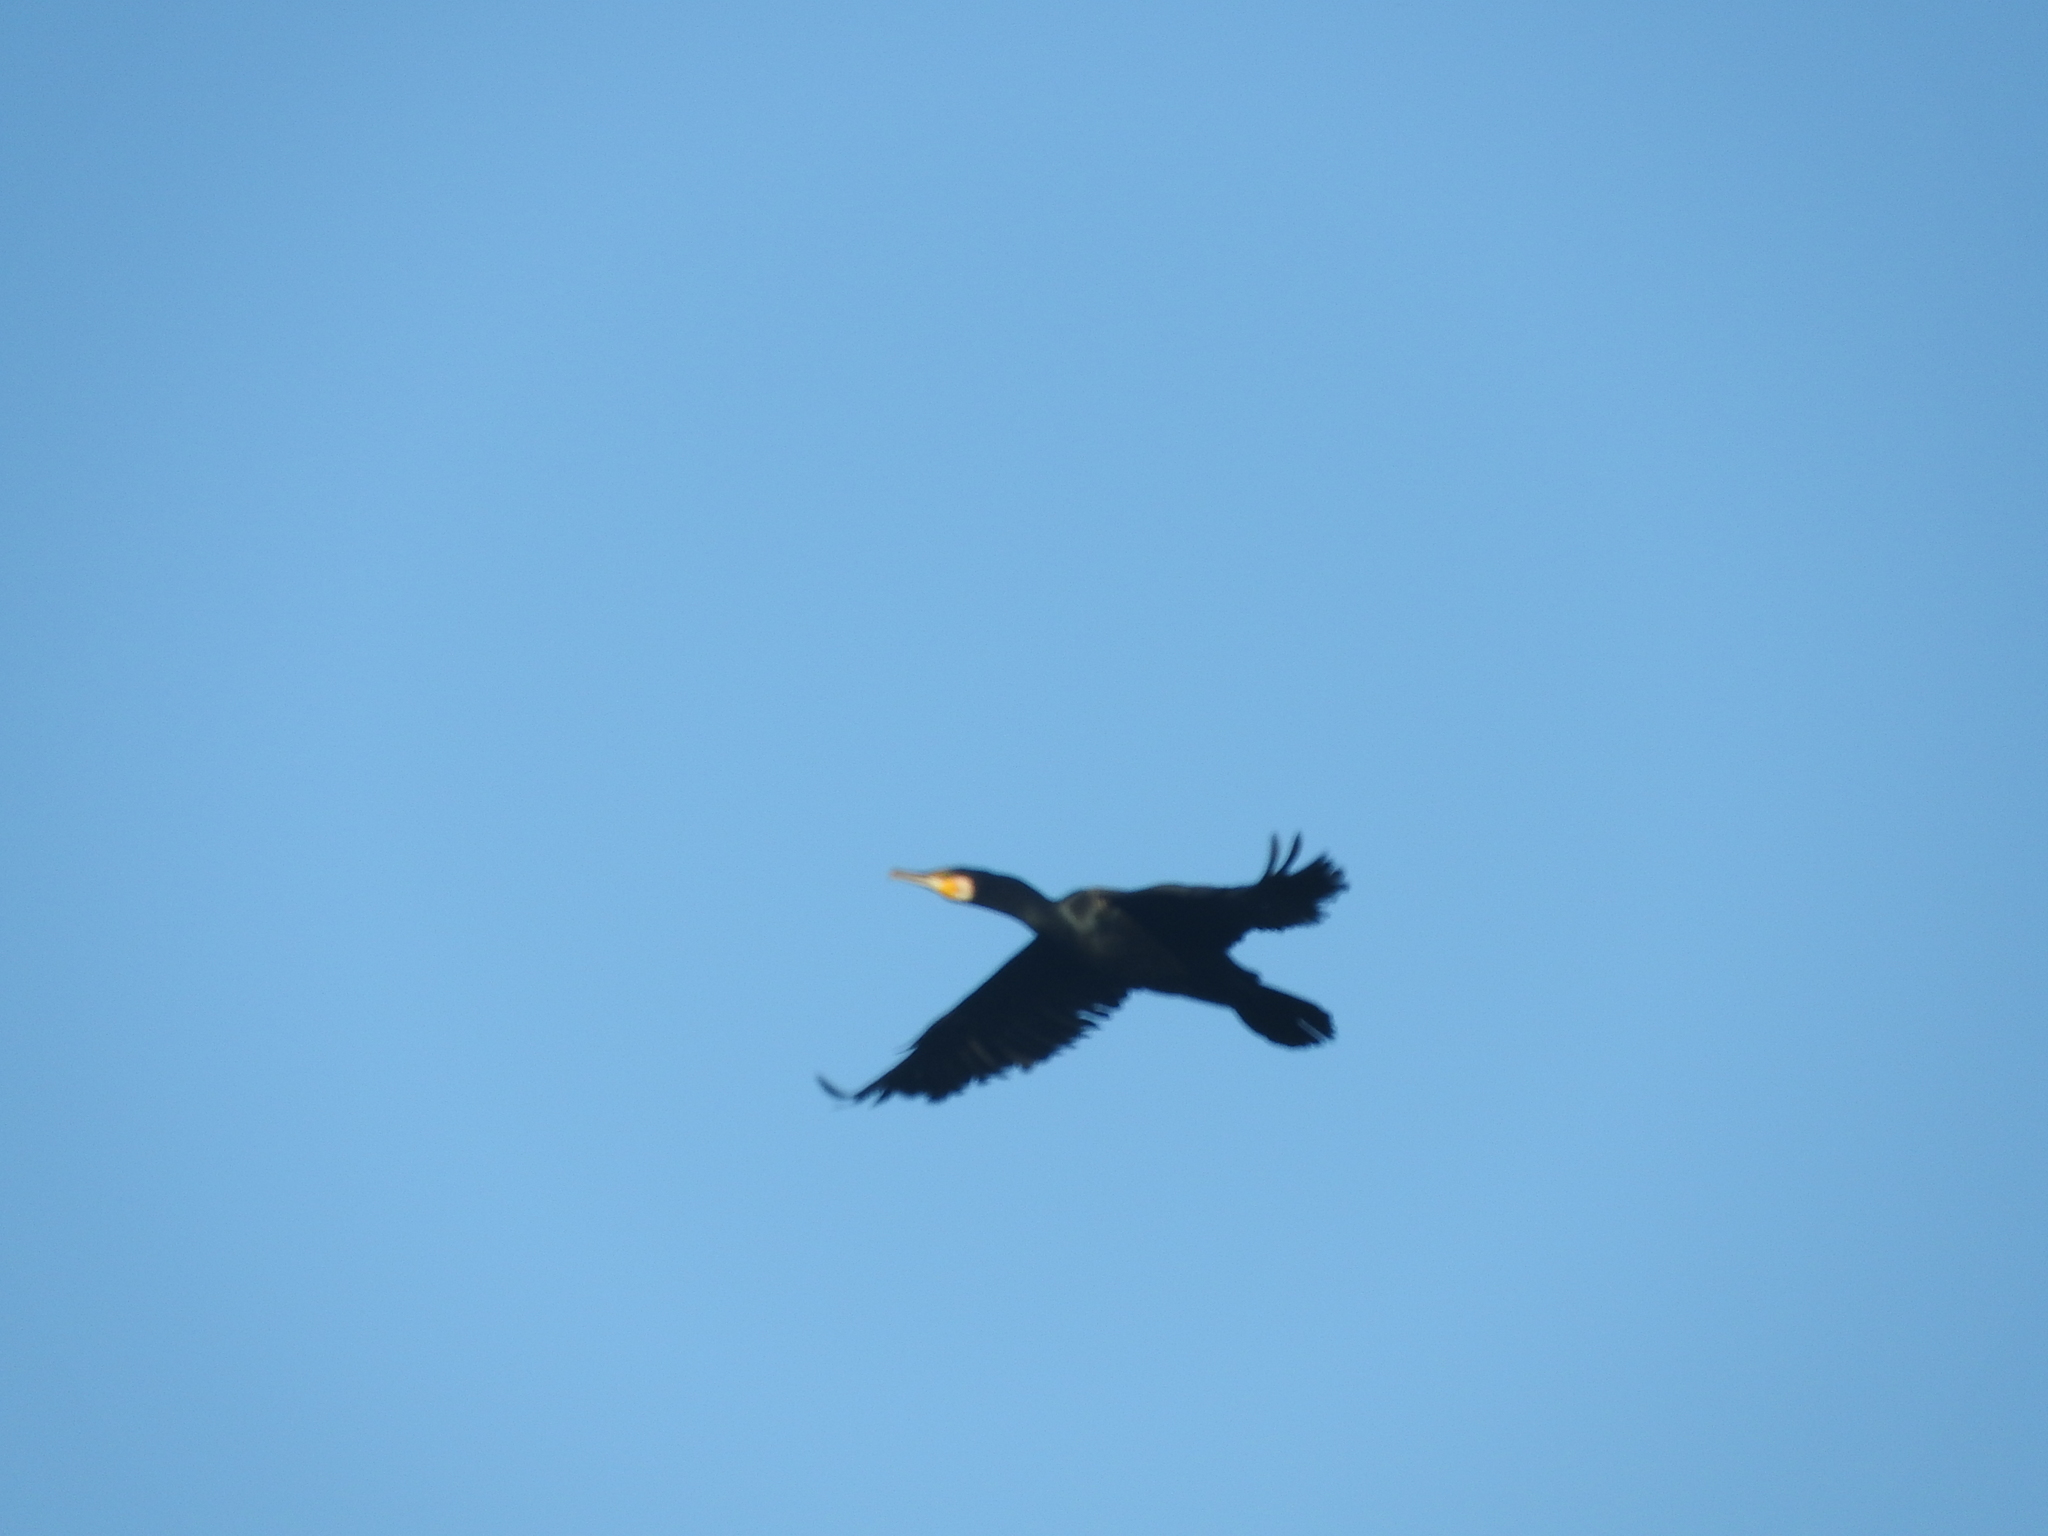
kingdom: Animalia
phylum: Chordata
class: Aves
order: Suliformes
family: Phalacrocoracidae
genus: Phalacrocorax
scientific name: Phalacrocorax carbo
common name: Great cormorant
